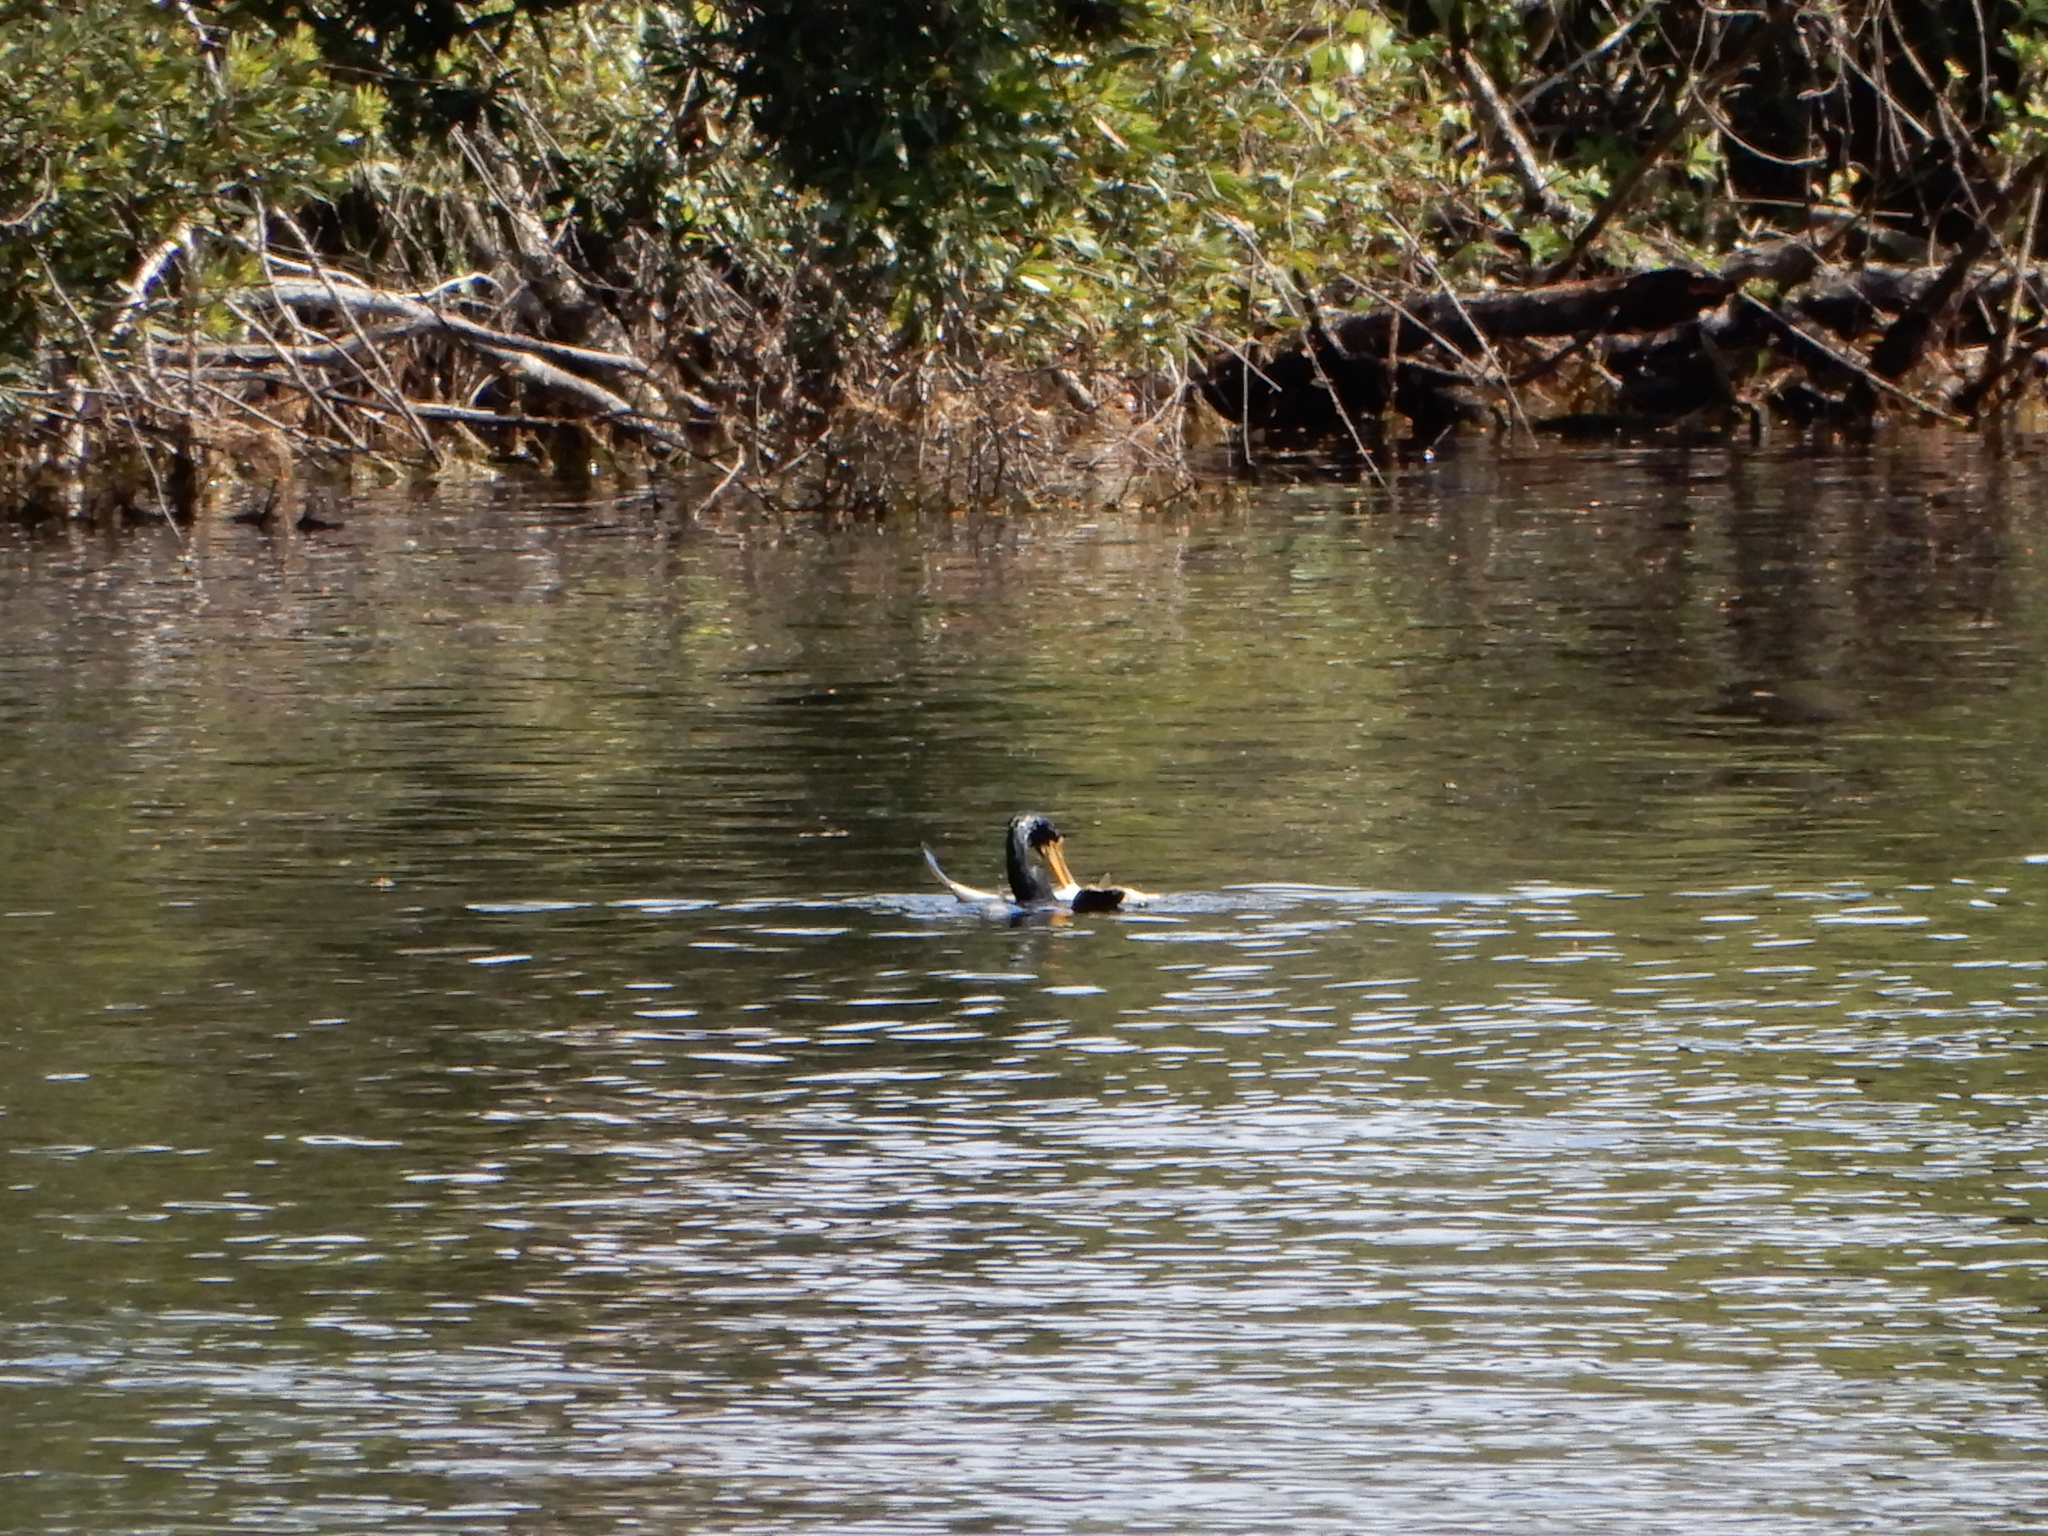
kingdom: Animalia
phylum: Chordata
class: Aves
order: Suliformes
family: Anhingidae
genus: Anhinga
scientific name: Anhinga anhinga
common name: Anhinga
